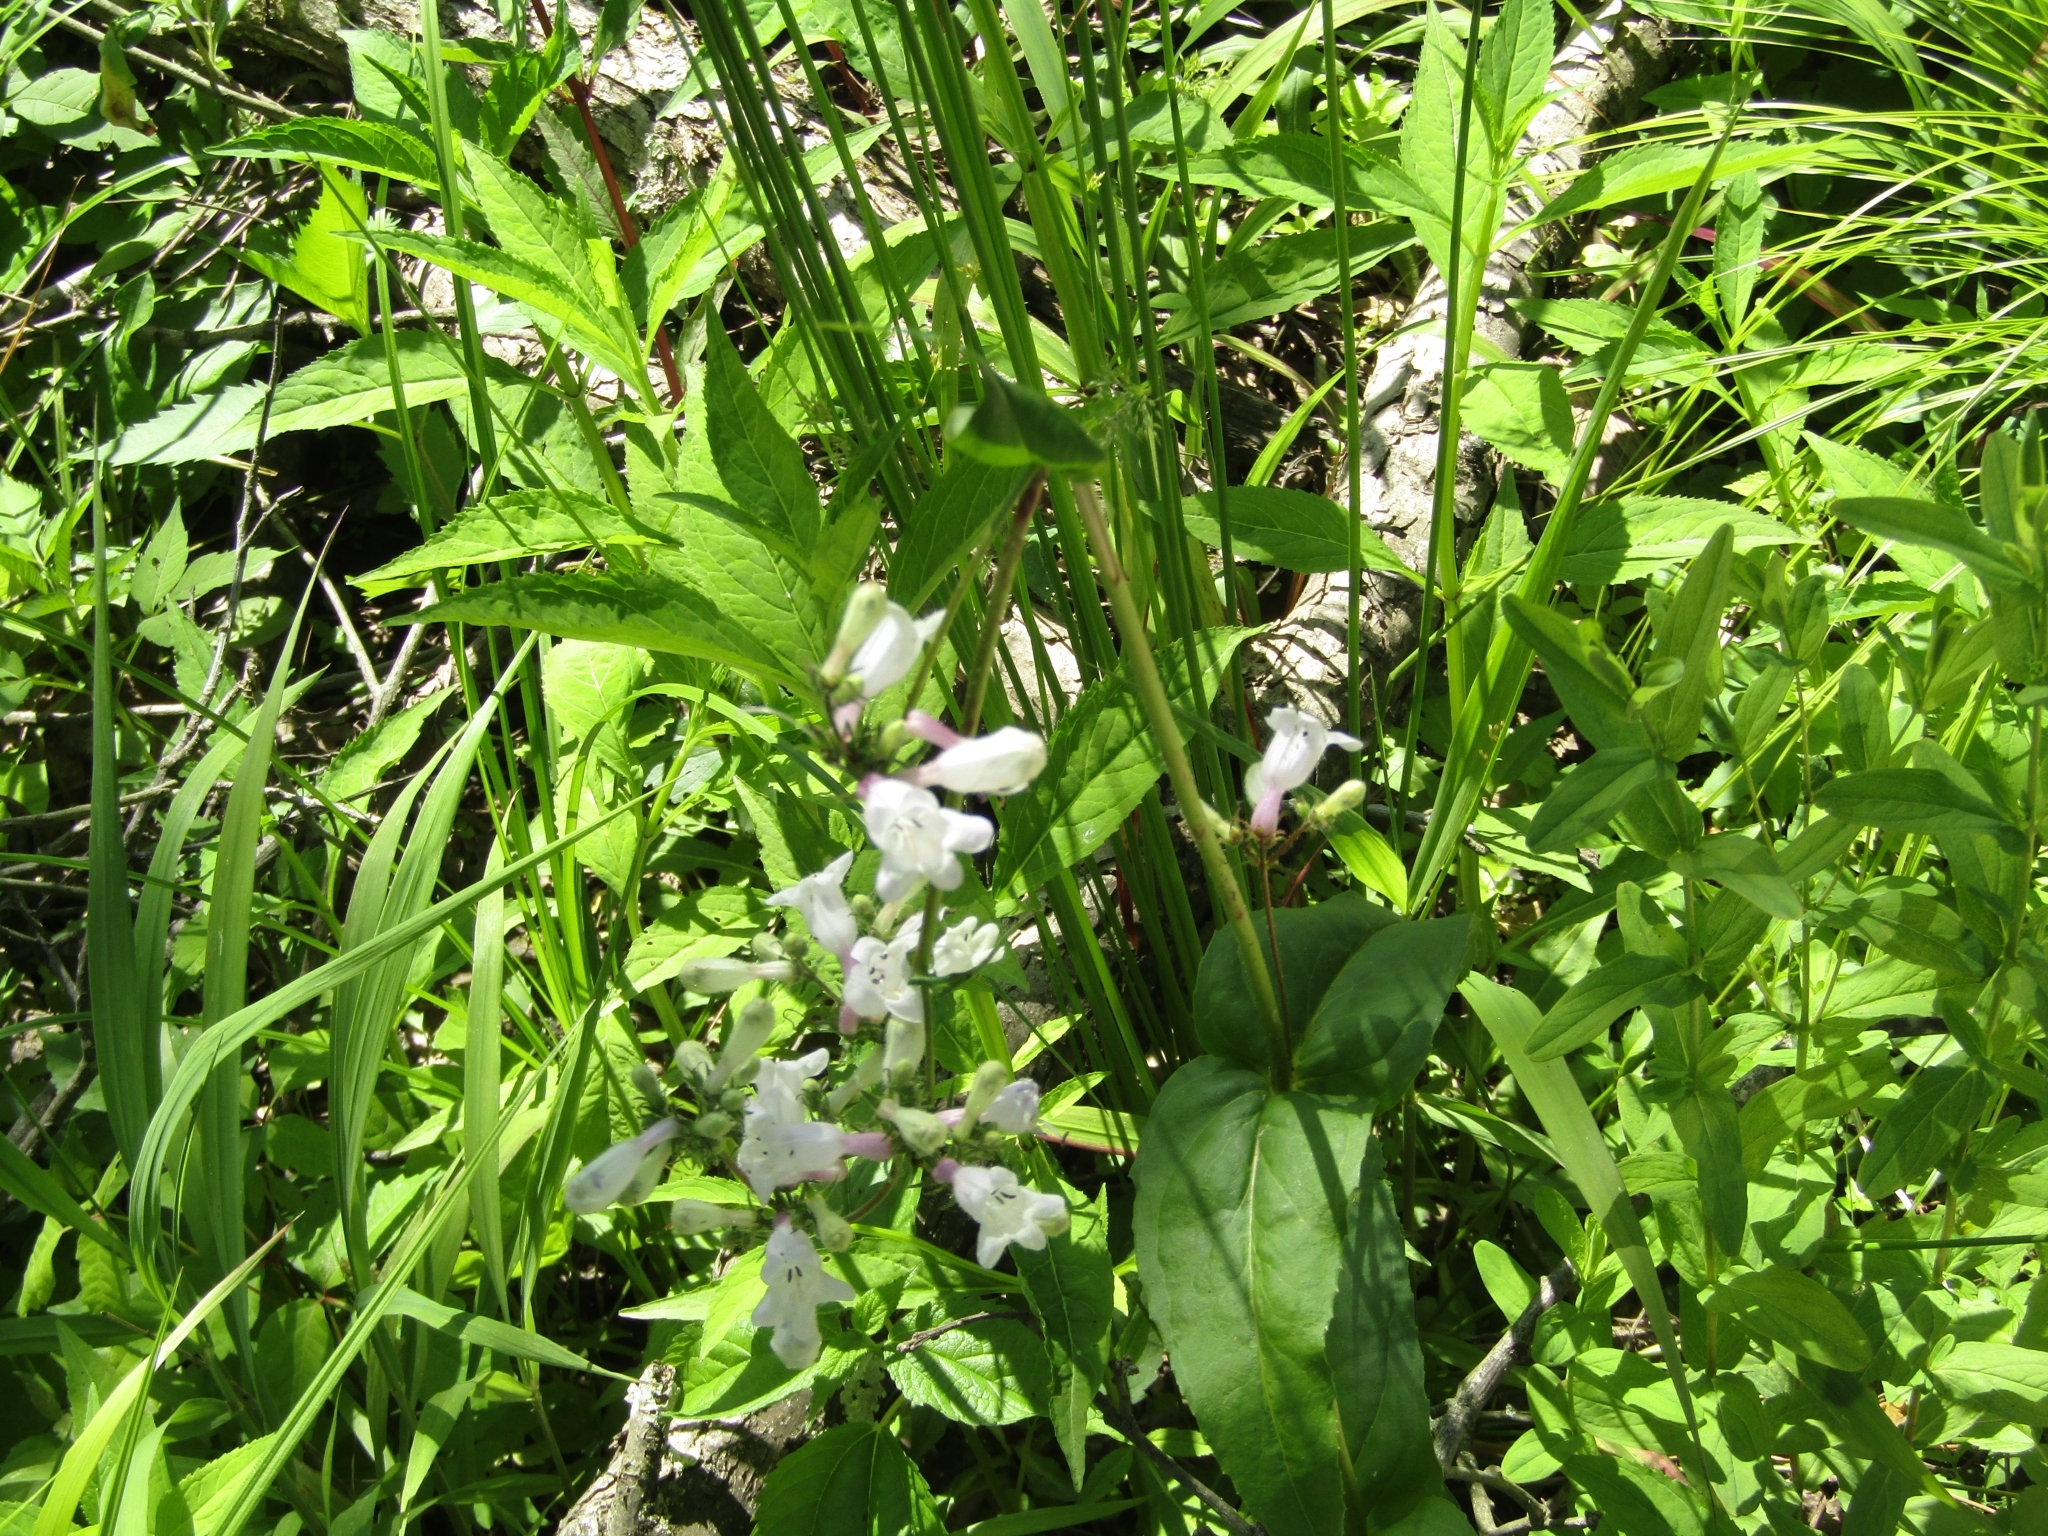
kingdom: Plantae
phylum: Tracheophyta
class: Magnoliopsida
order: Lamiales
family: Plantaginaceae
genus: Penstemon
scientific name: Penstemon digitalis
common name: Foxglove beardtongue
